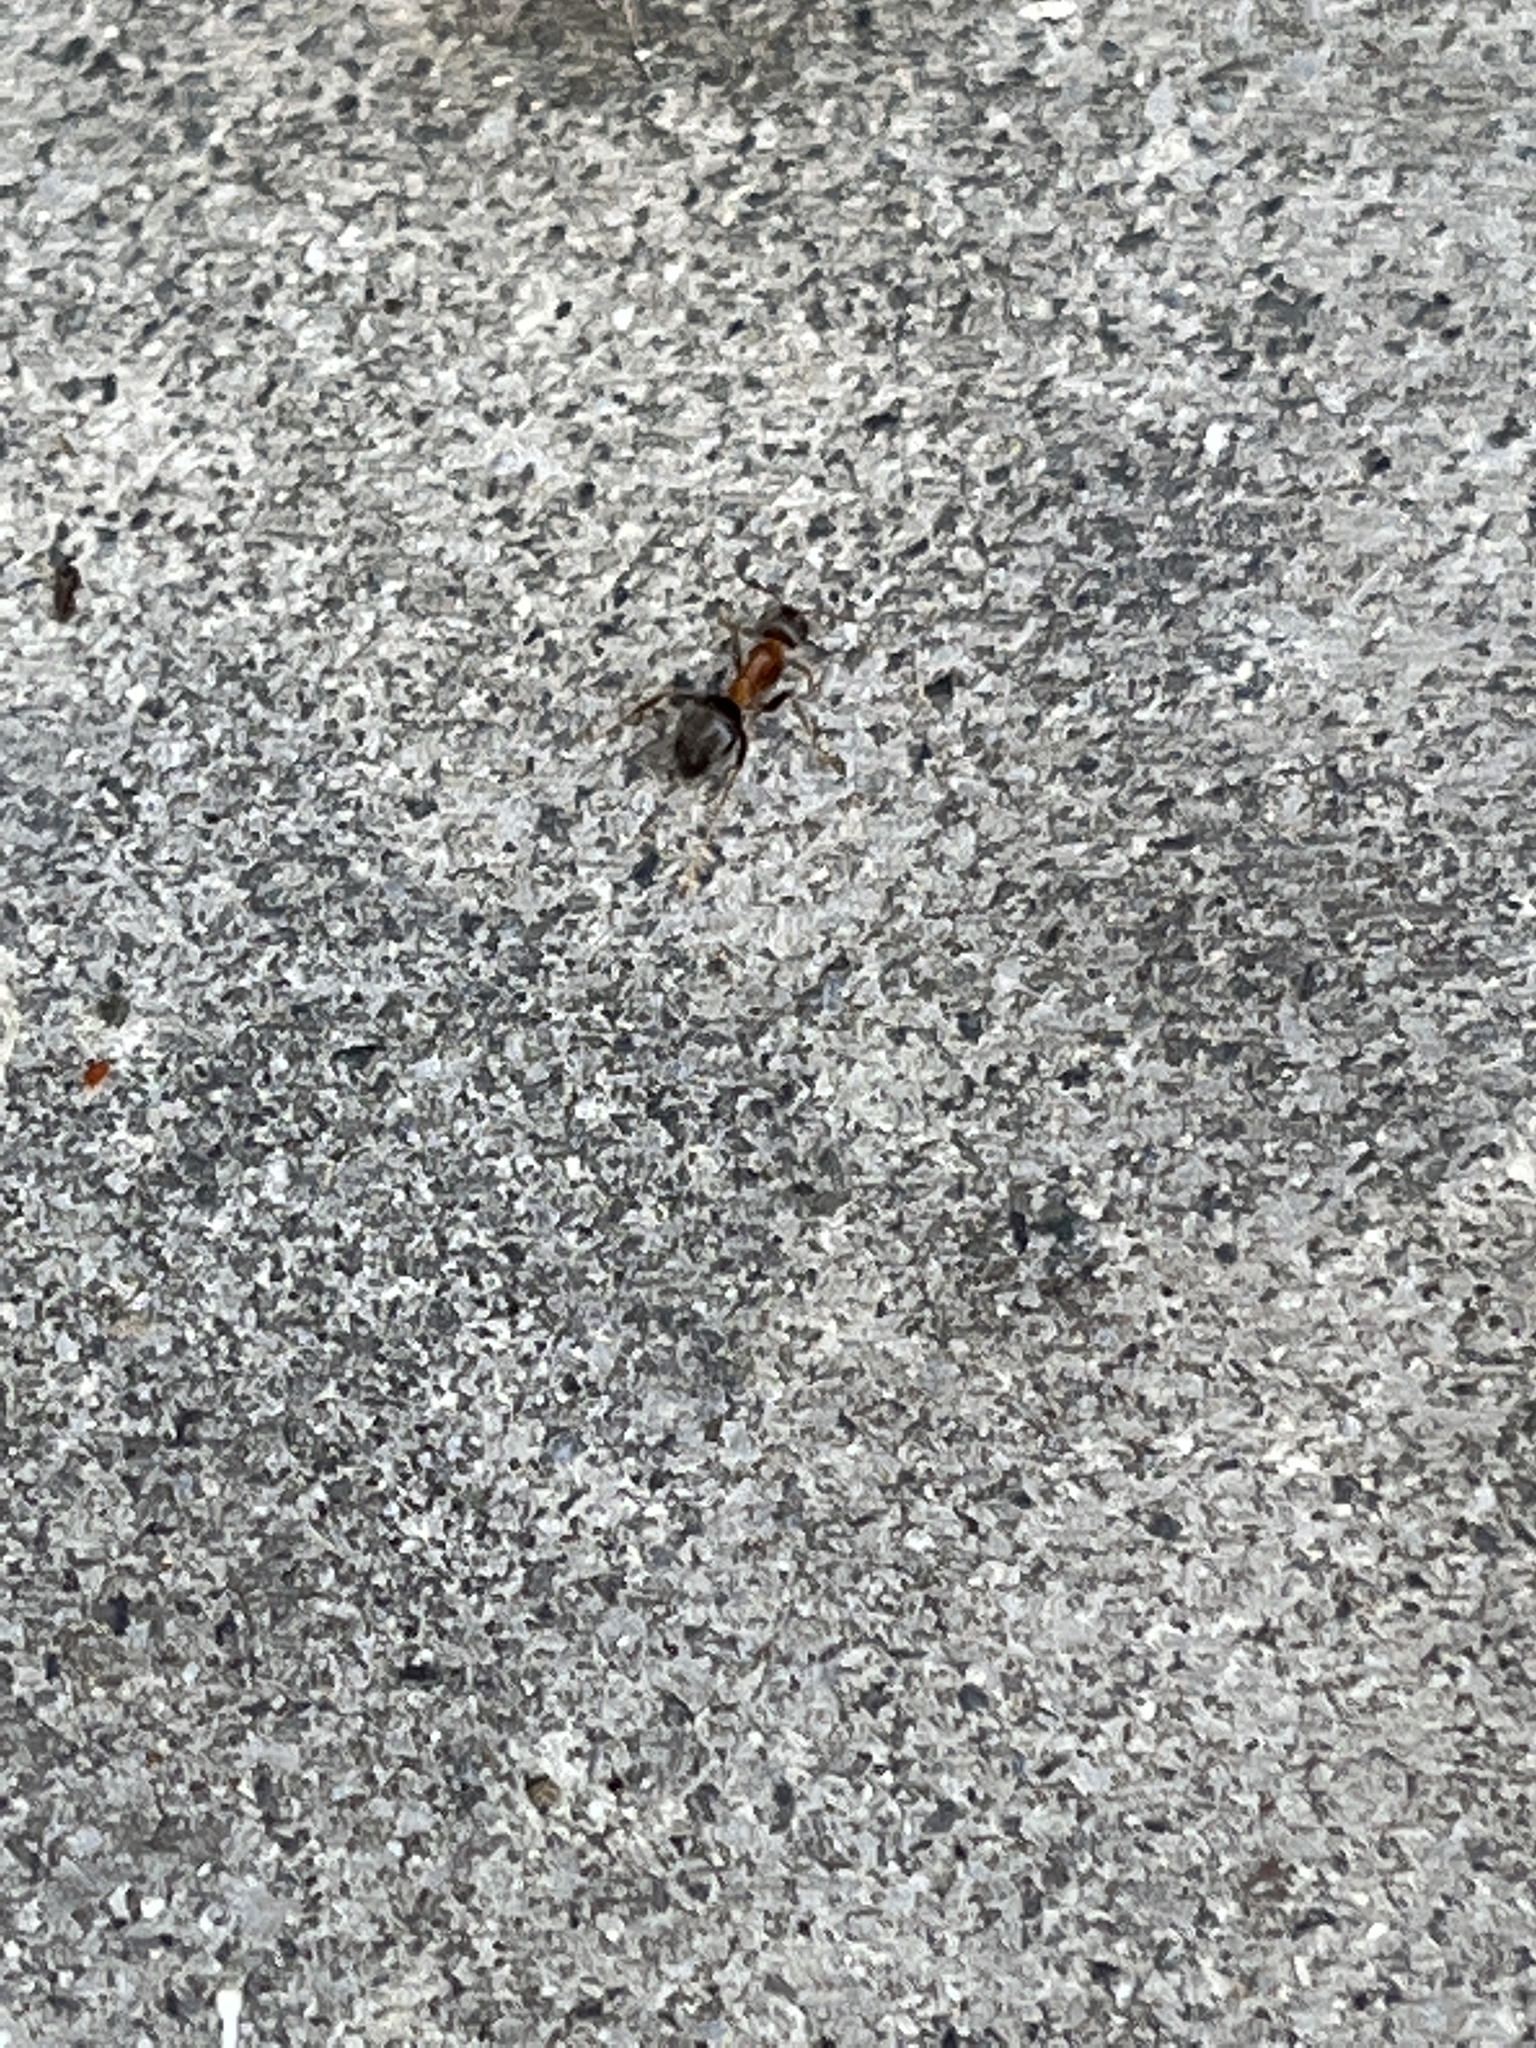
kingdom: Animalia
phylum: Arthropoda
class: Insecta
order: Hymenoptera
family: Formicidae
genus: Lasius
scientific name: Lasius emarginatus
